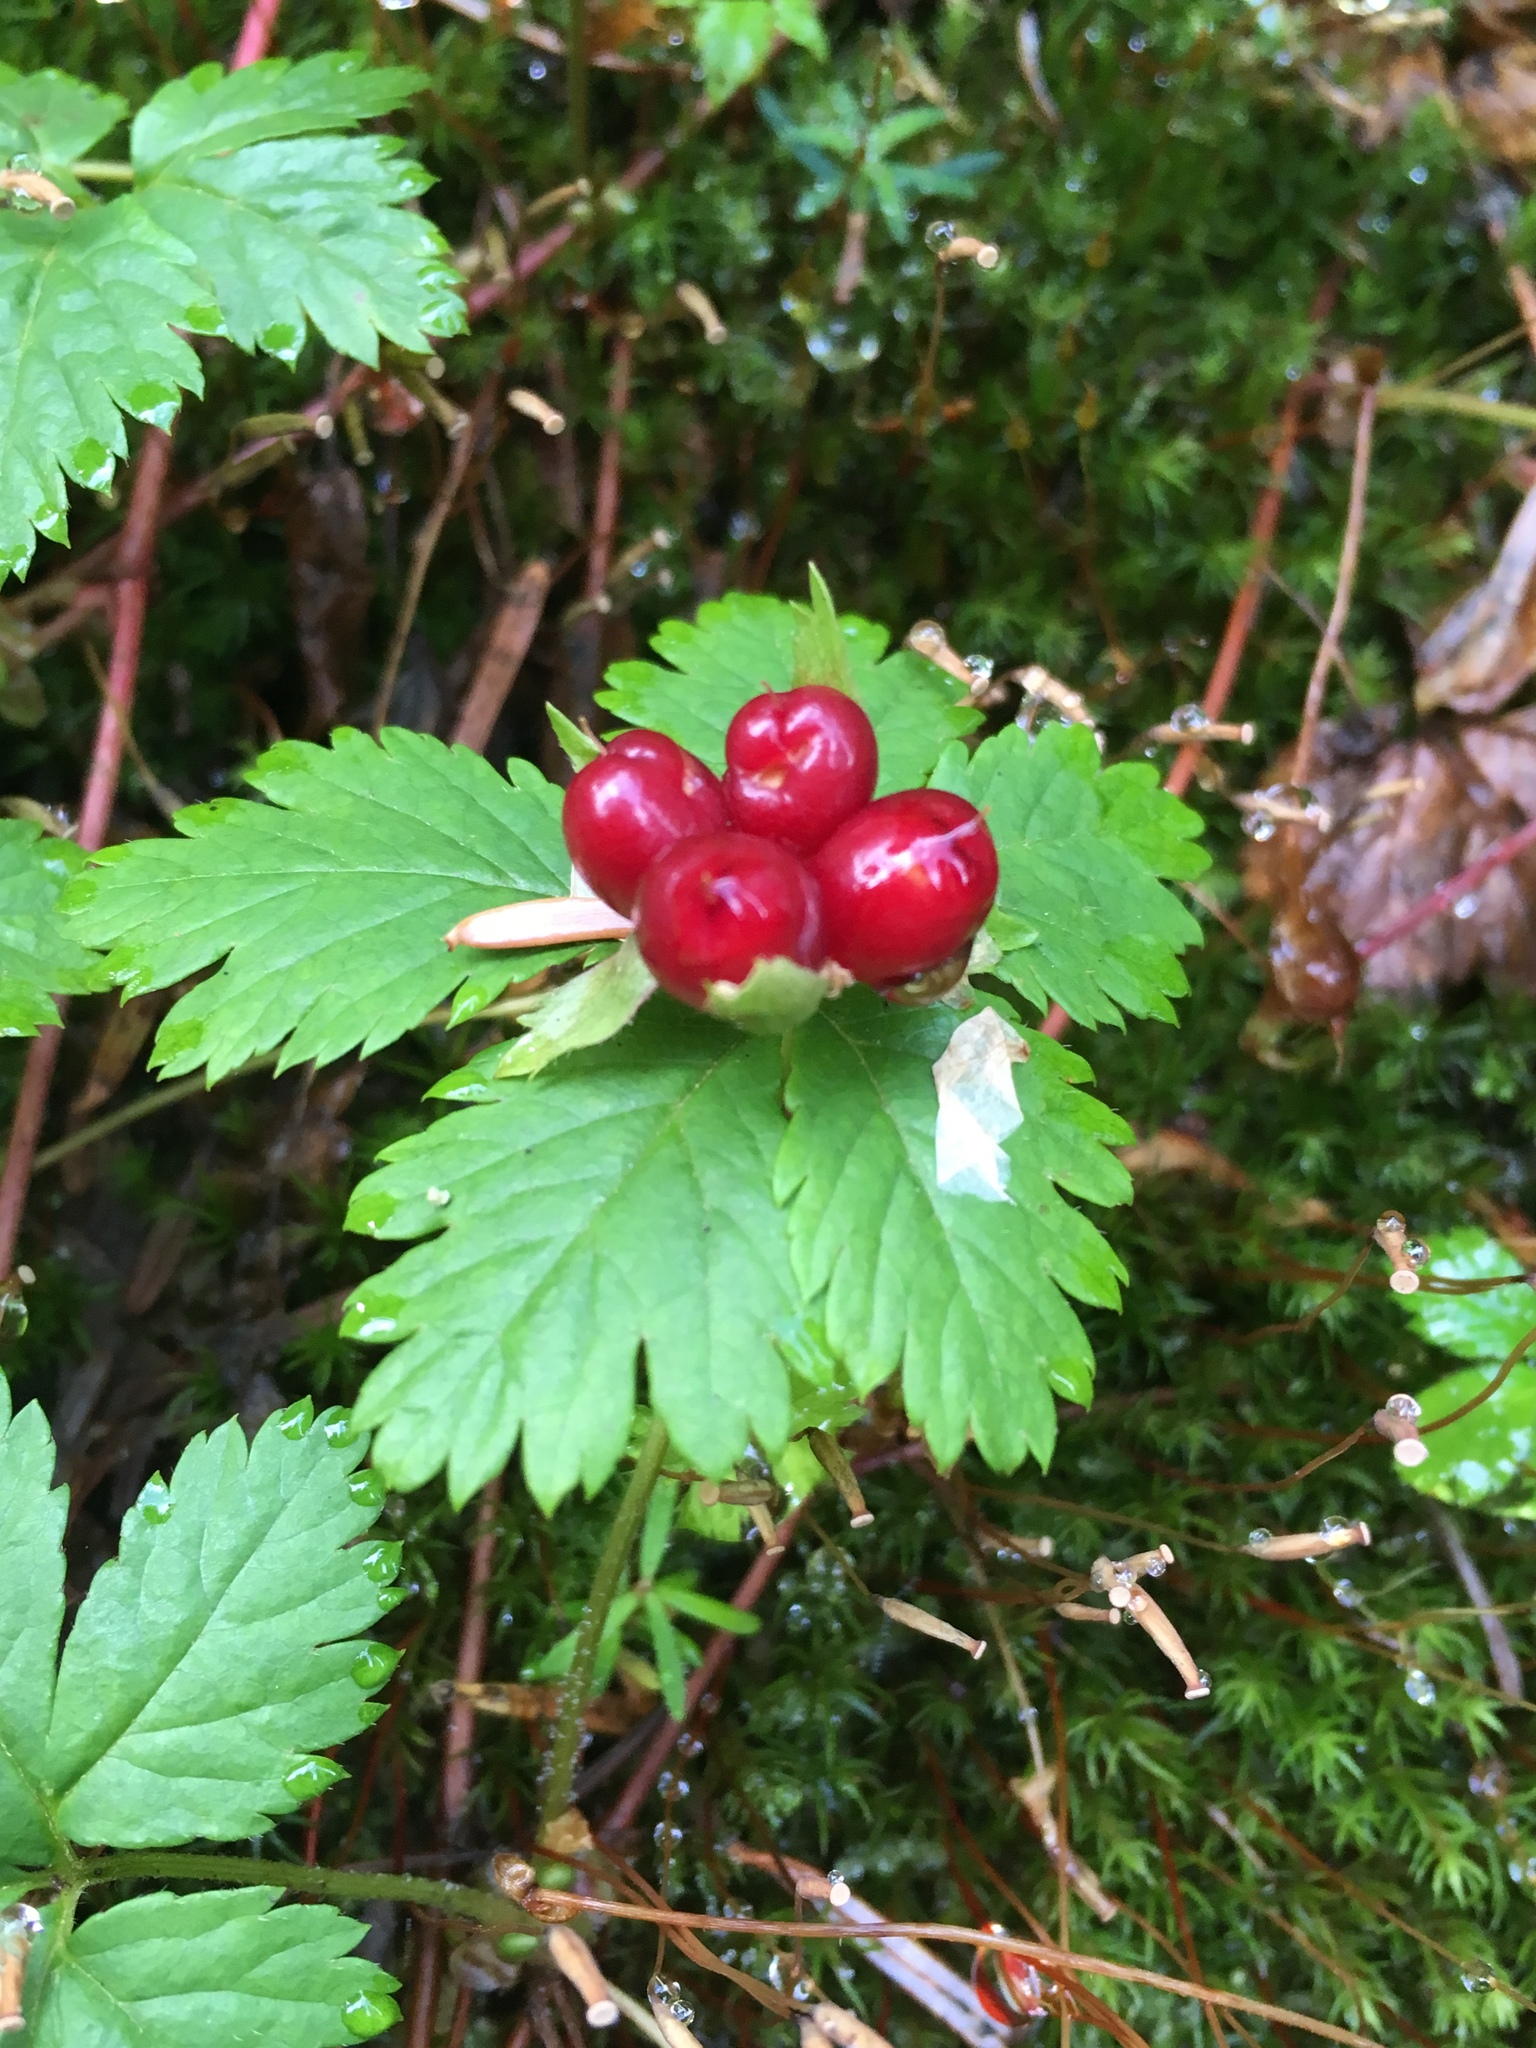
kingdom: Plantae
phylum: Tracheophyta
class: Magnoliopsida
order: Rosales
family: Rosaceae
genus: Rubus
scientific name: Rubus pedatus
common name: Creeping raspberry
